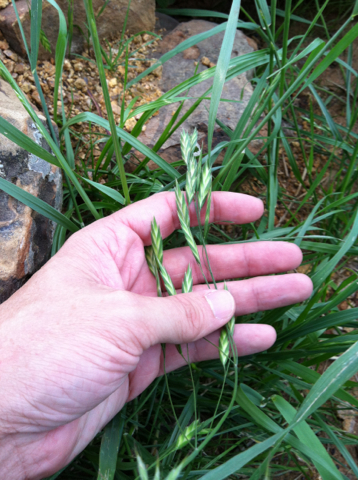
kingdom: Plantae
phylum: Tracheophyta
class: Liliopsida
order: Poales
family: Poaceae
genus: Bromus
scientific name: Bromus catharticus
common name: Rescuegrass
